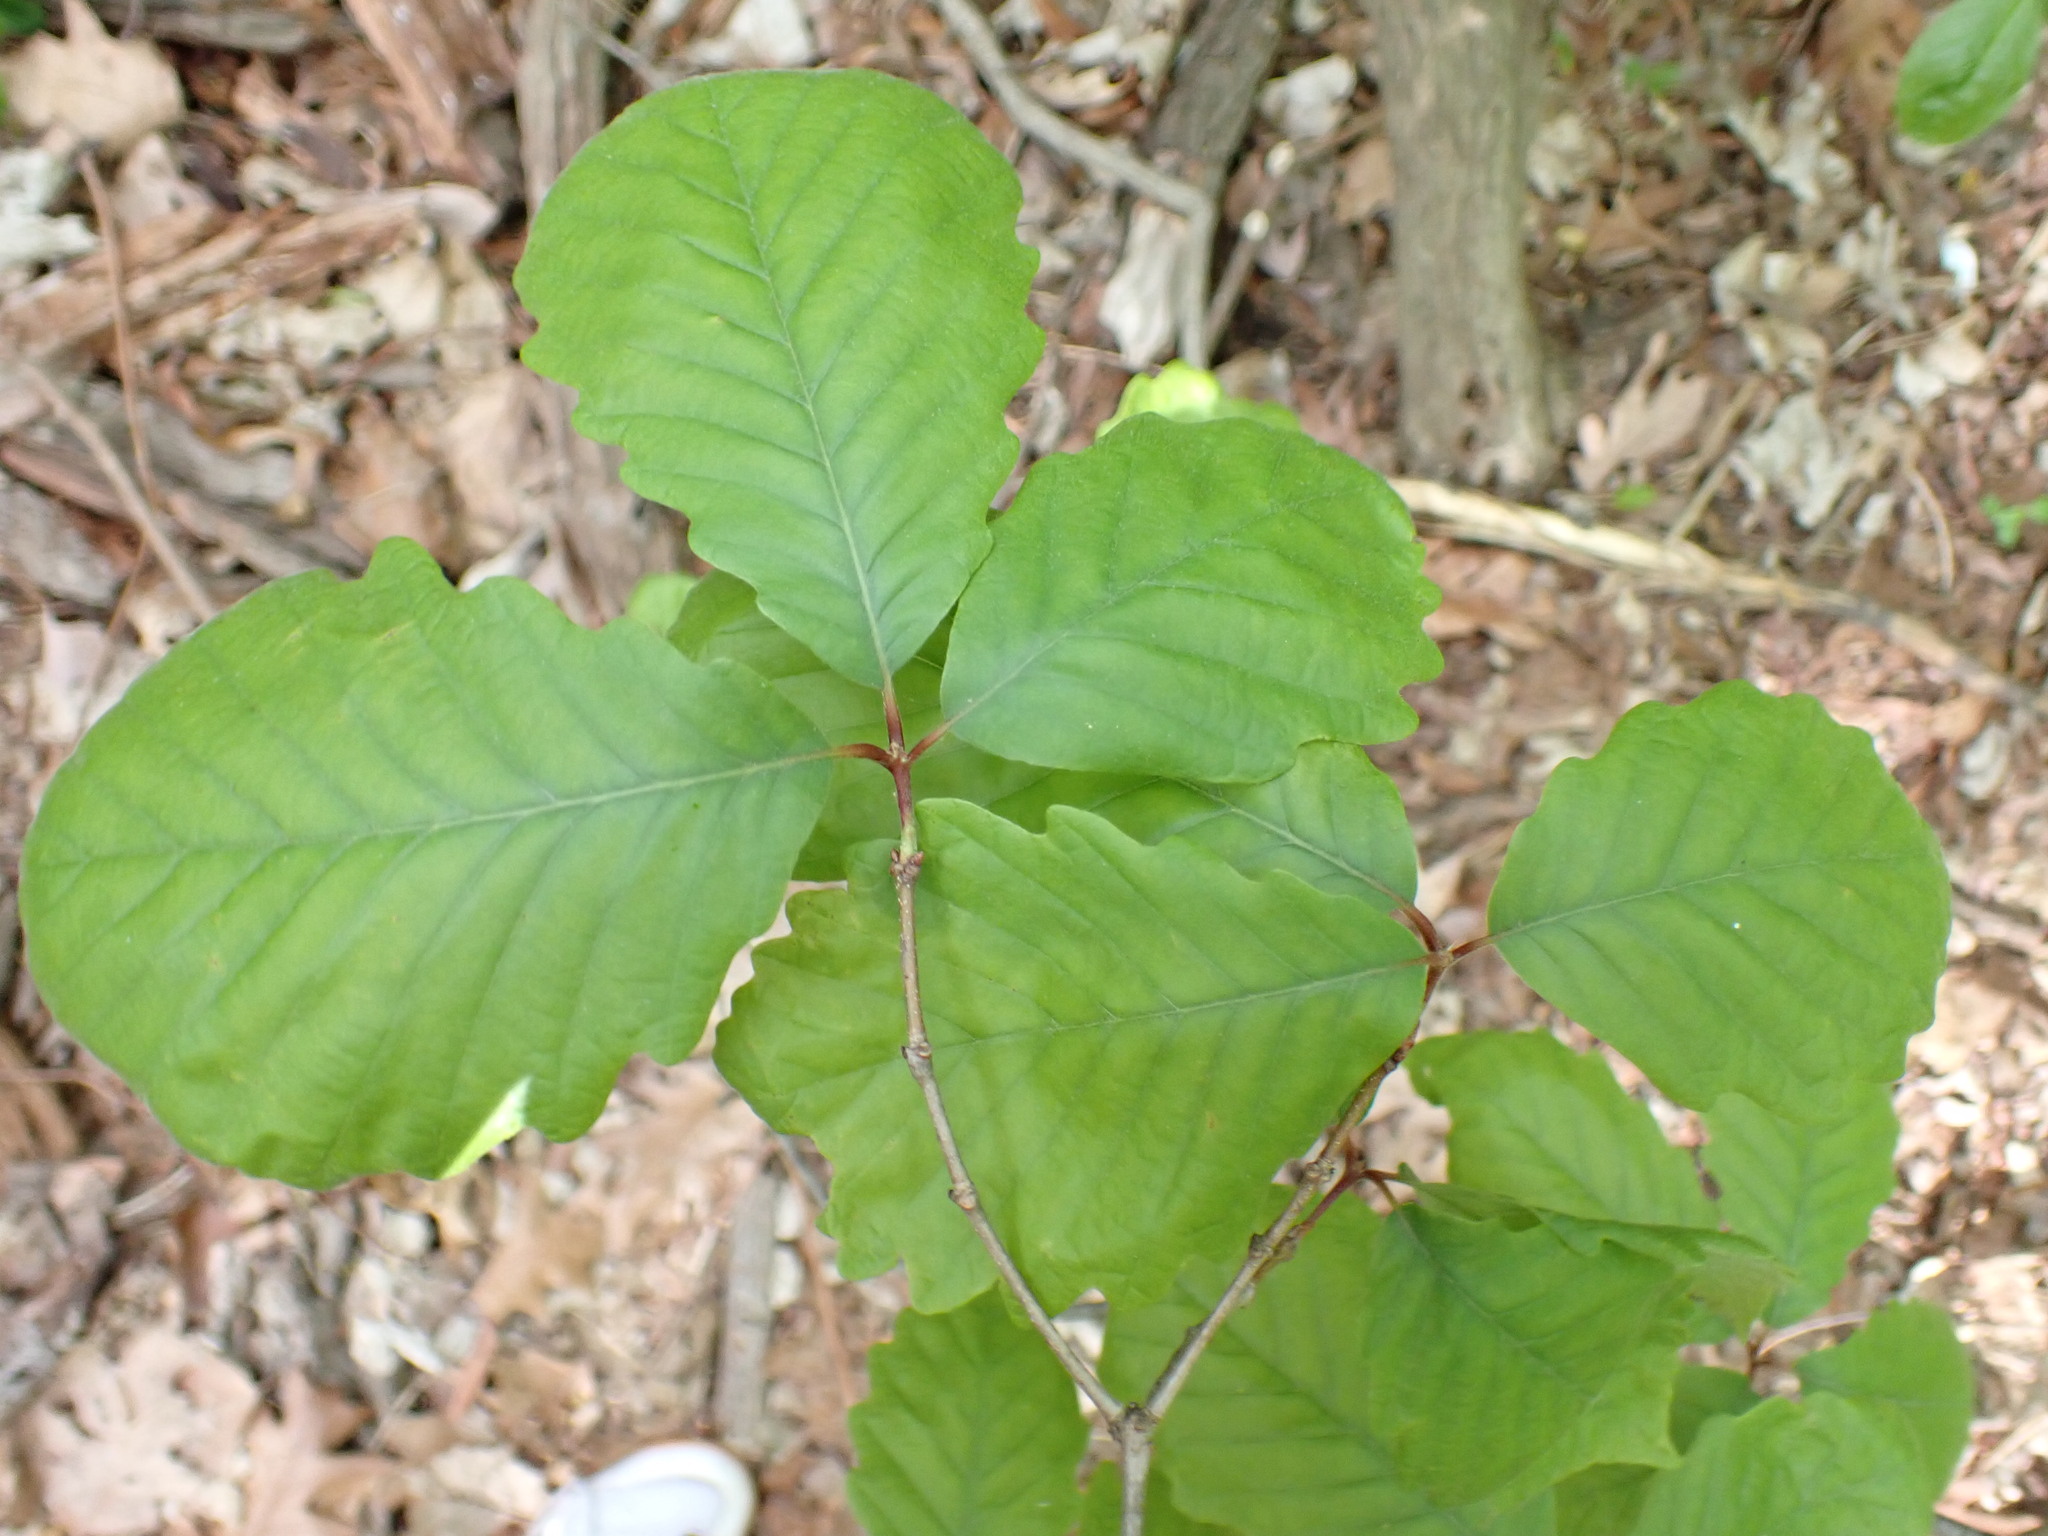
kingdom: Plantae
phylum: Tracheophyta
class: Magnoliopsida
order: Fagales
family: Fagaceae
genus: Quercus
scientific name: Quercus montana
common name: Chestnut oak
